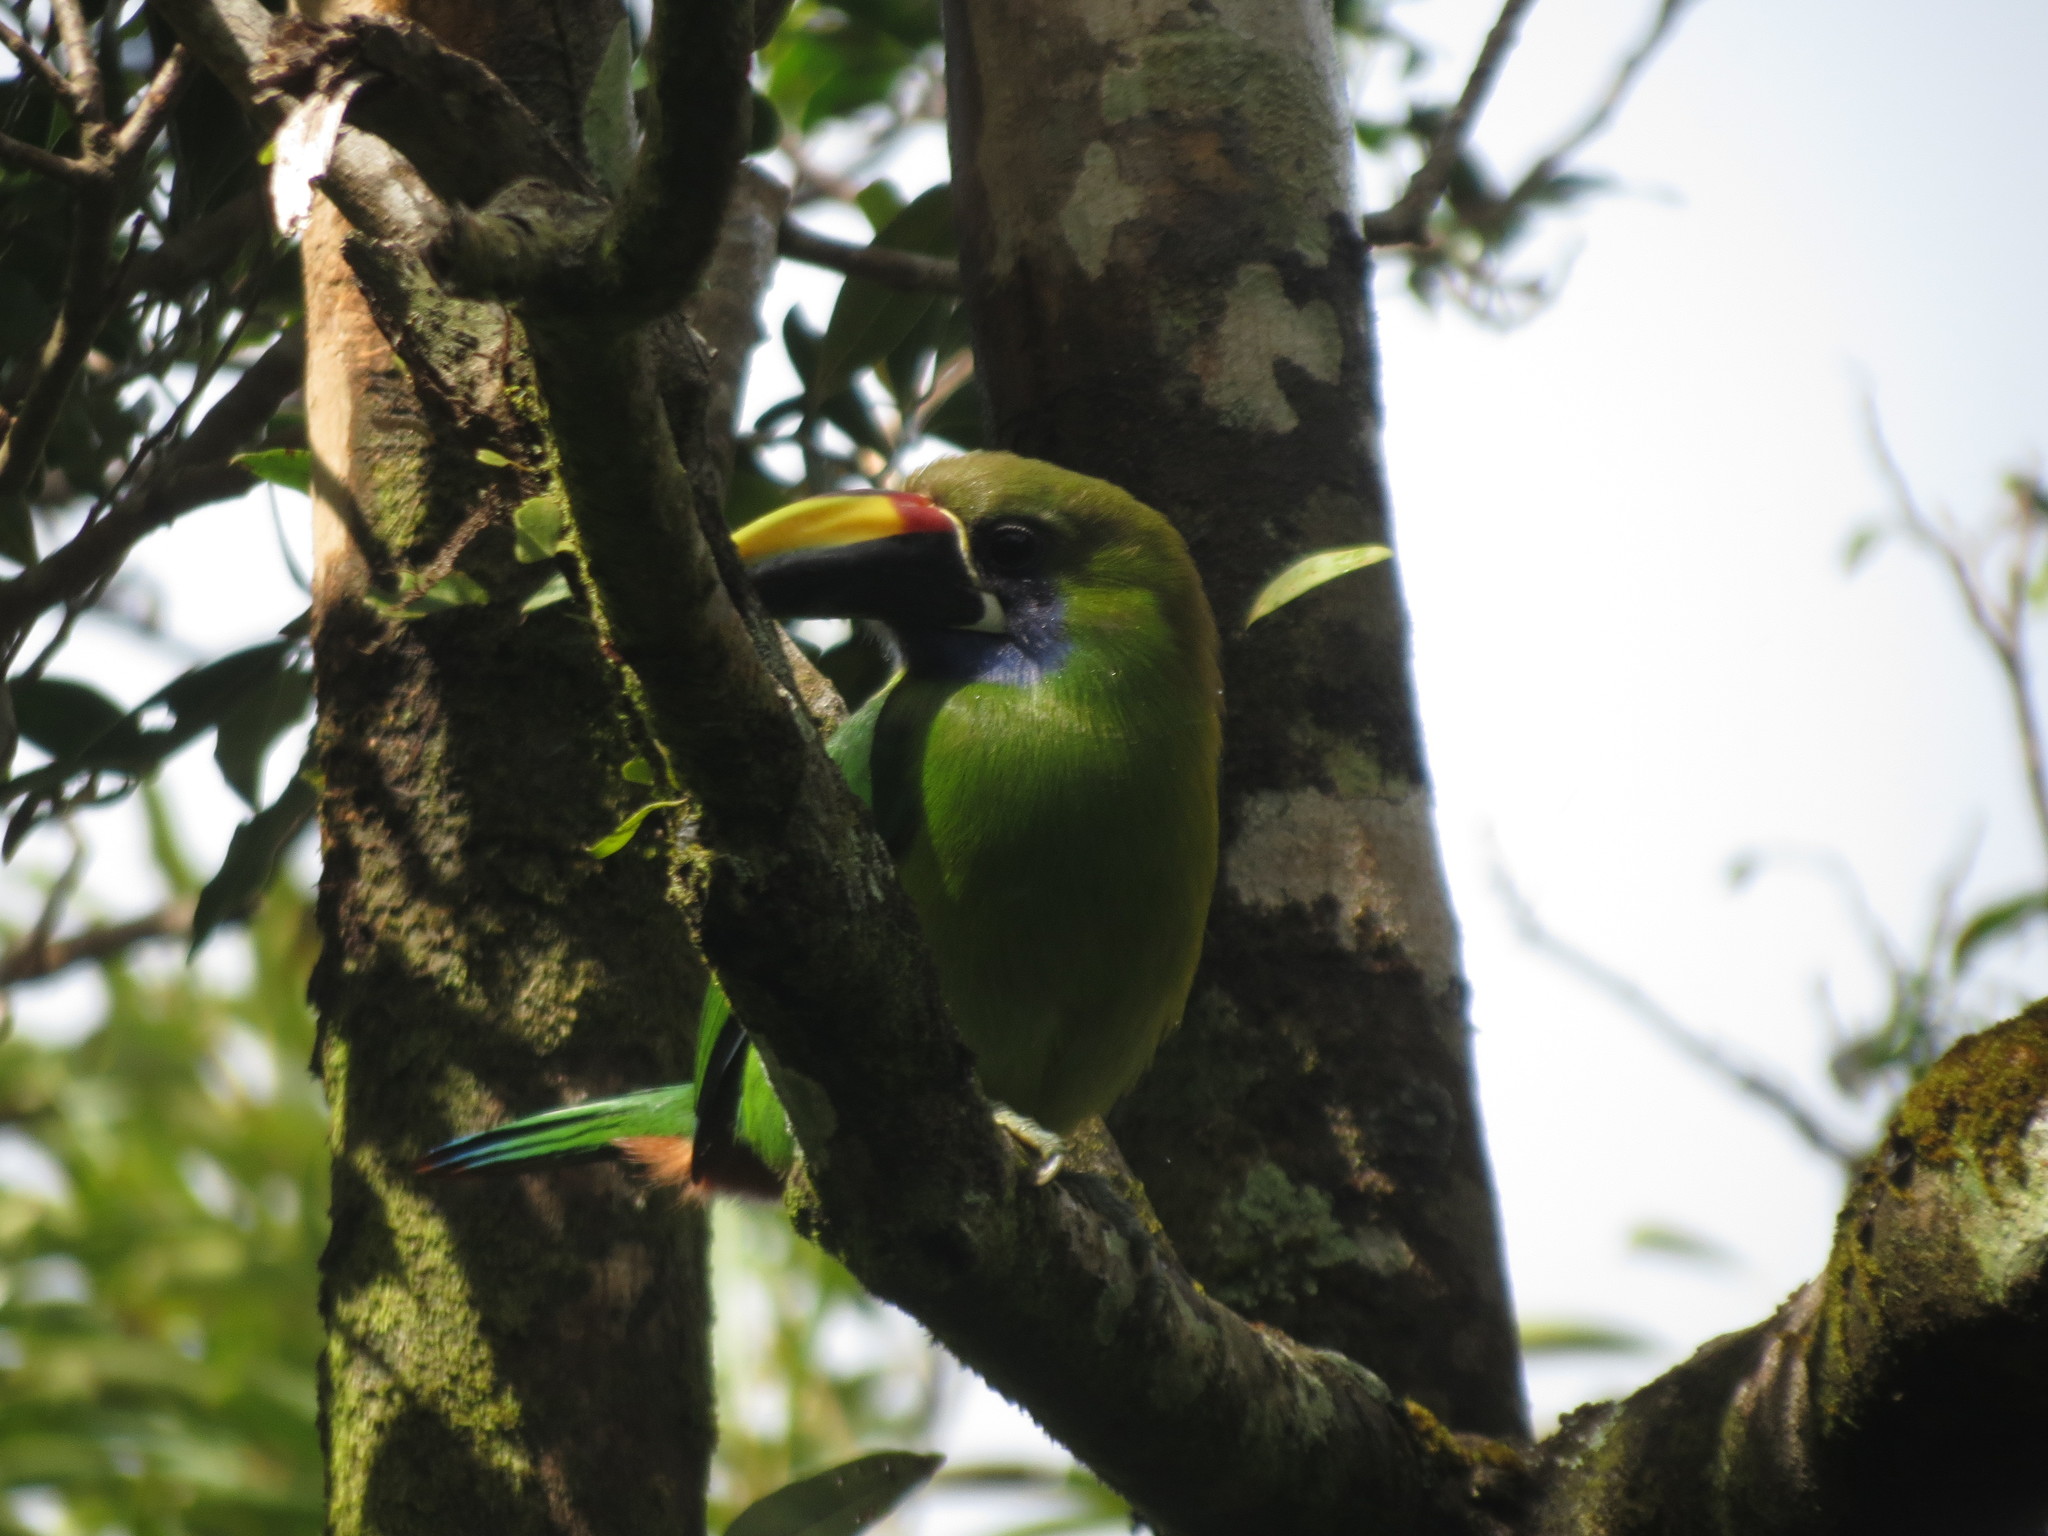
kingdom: Animalia
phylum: Chordata
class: Aves
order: Piciformes
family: Ramphastidae
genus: Aulacorhynchus
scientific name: Aulacorhynchus prasinus
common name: Emerald toucanet
